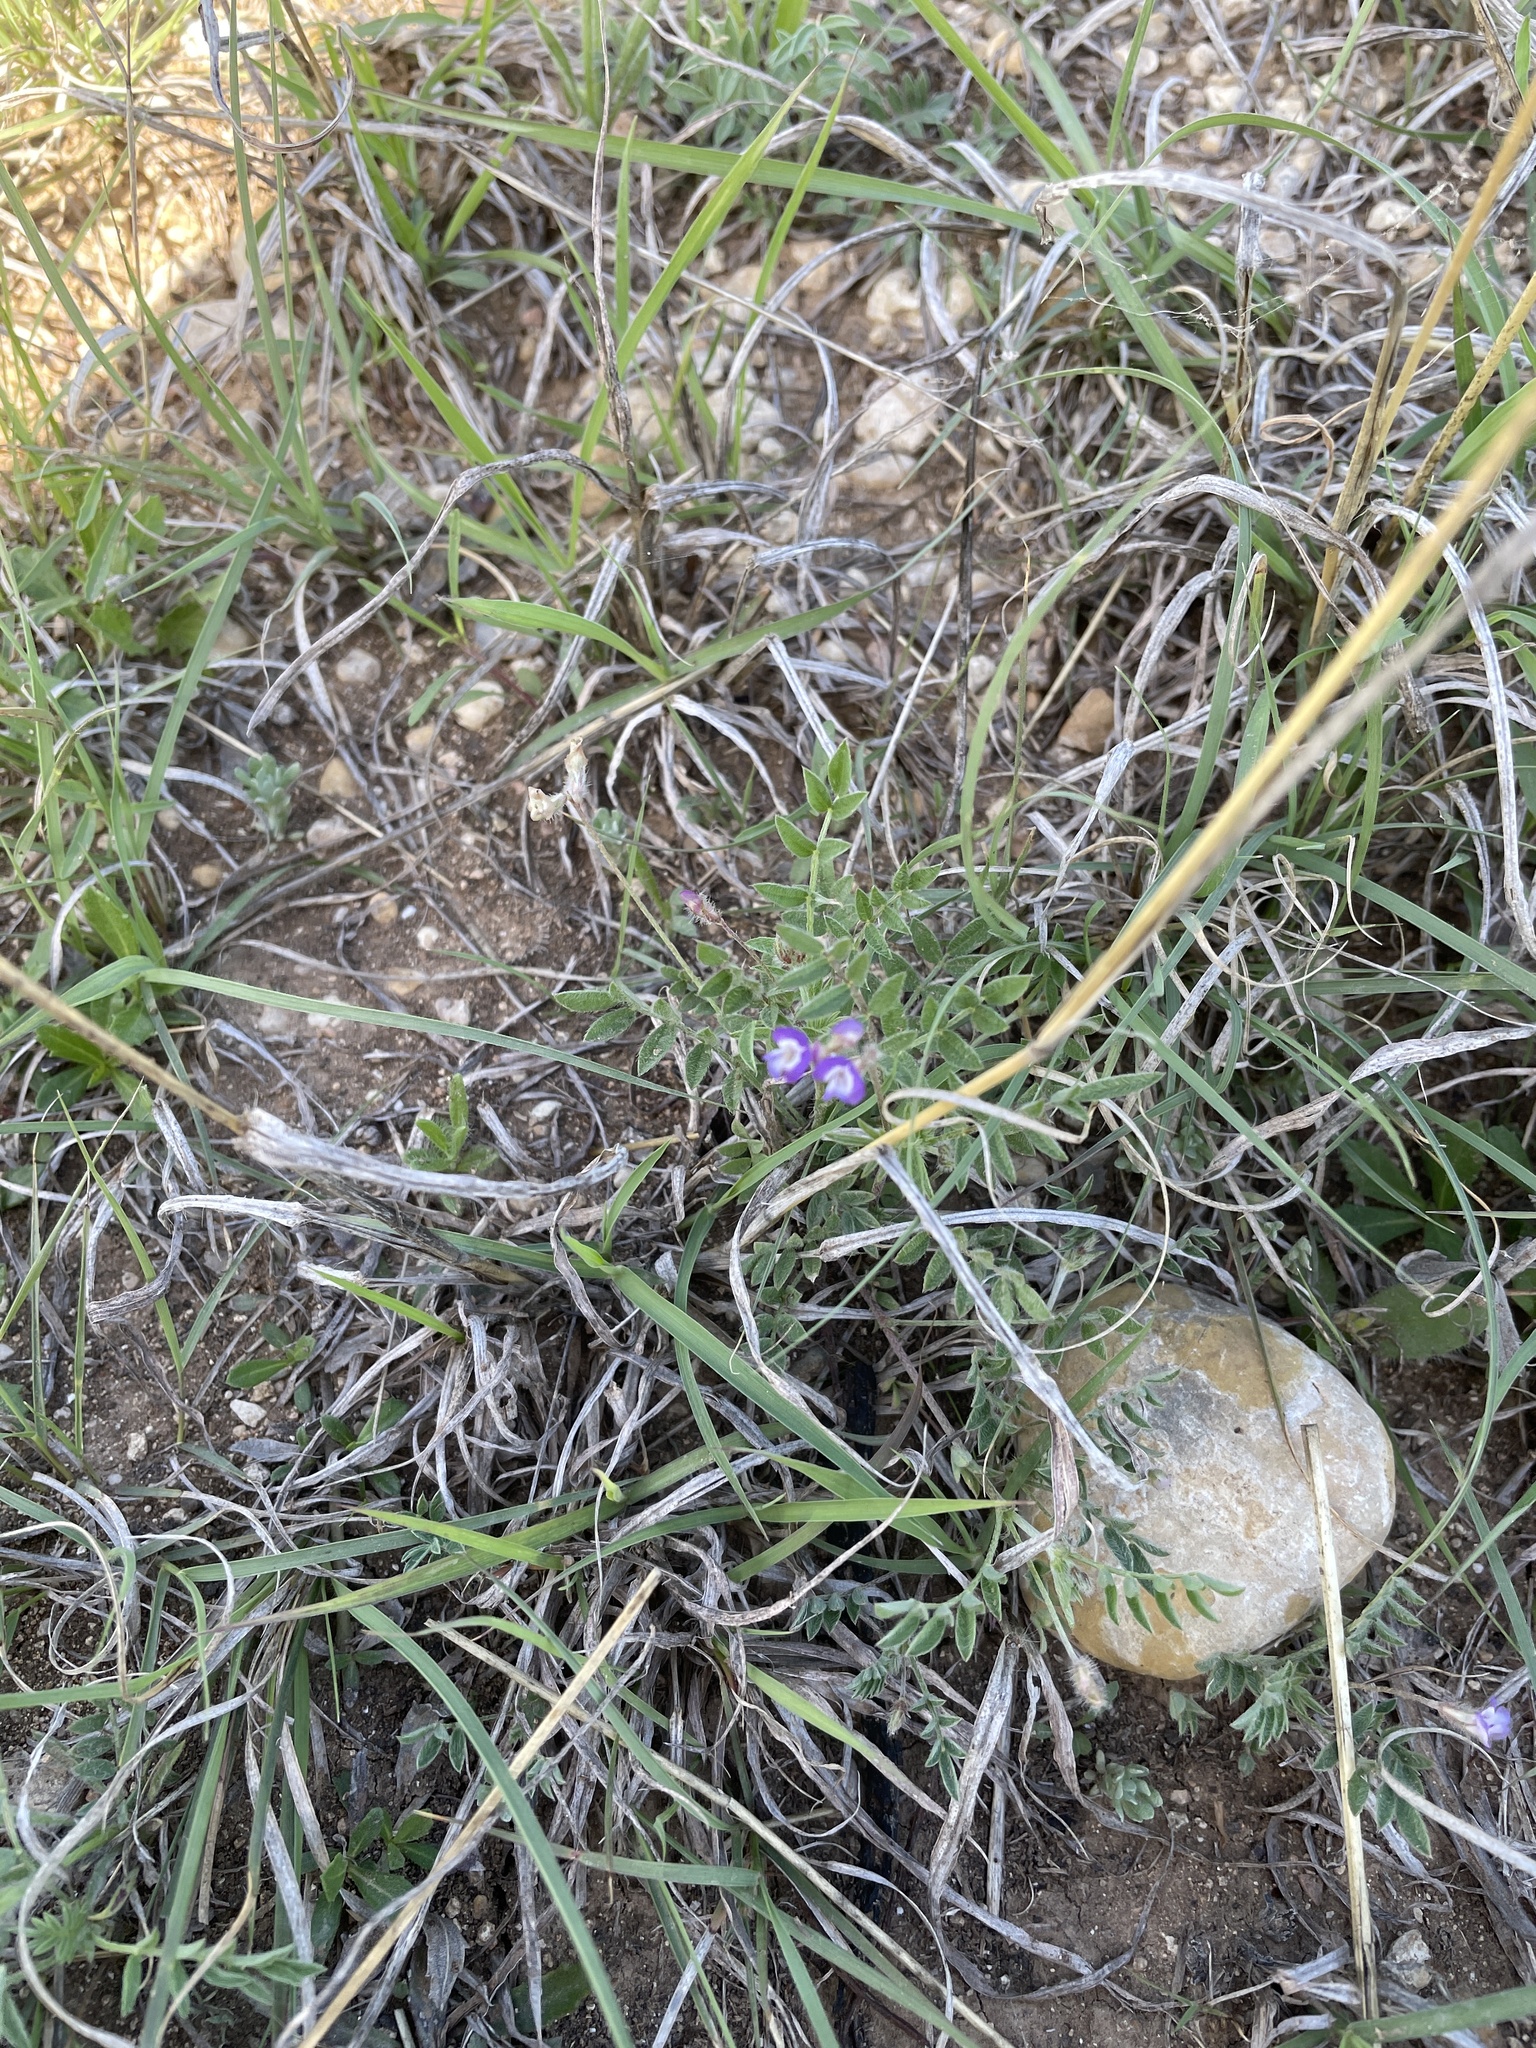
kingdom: Plantae
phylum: Tracheophyta
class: Magnoliopsida
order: Fabales
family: Fabaceae
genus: Astragalus
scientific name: Astragalus nuttallianus
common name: Smallflowered milkvetch
